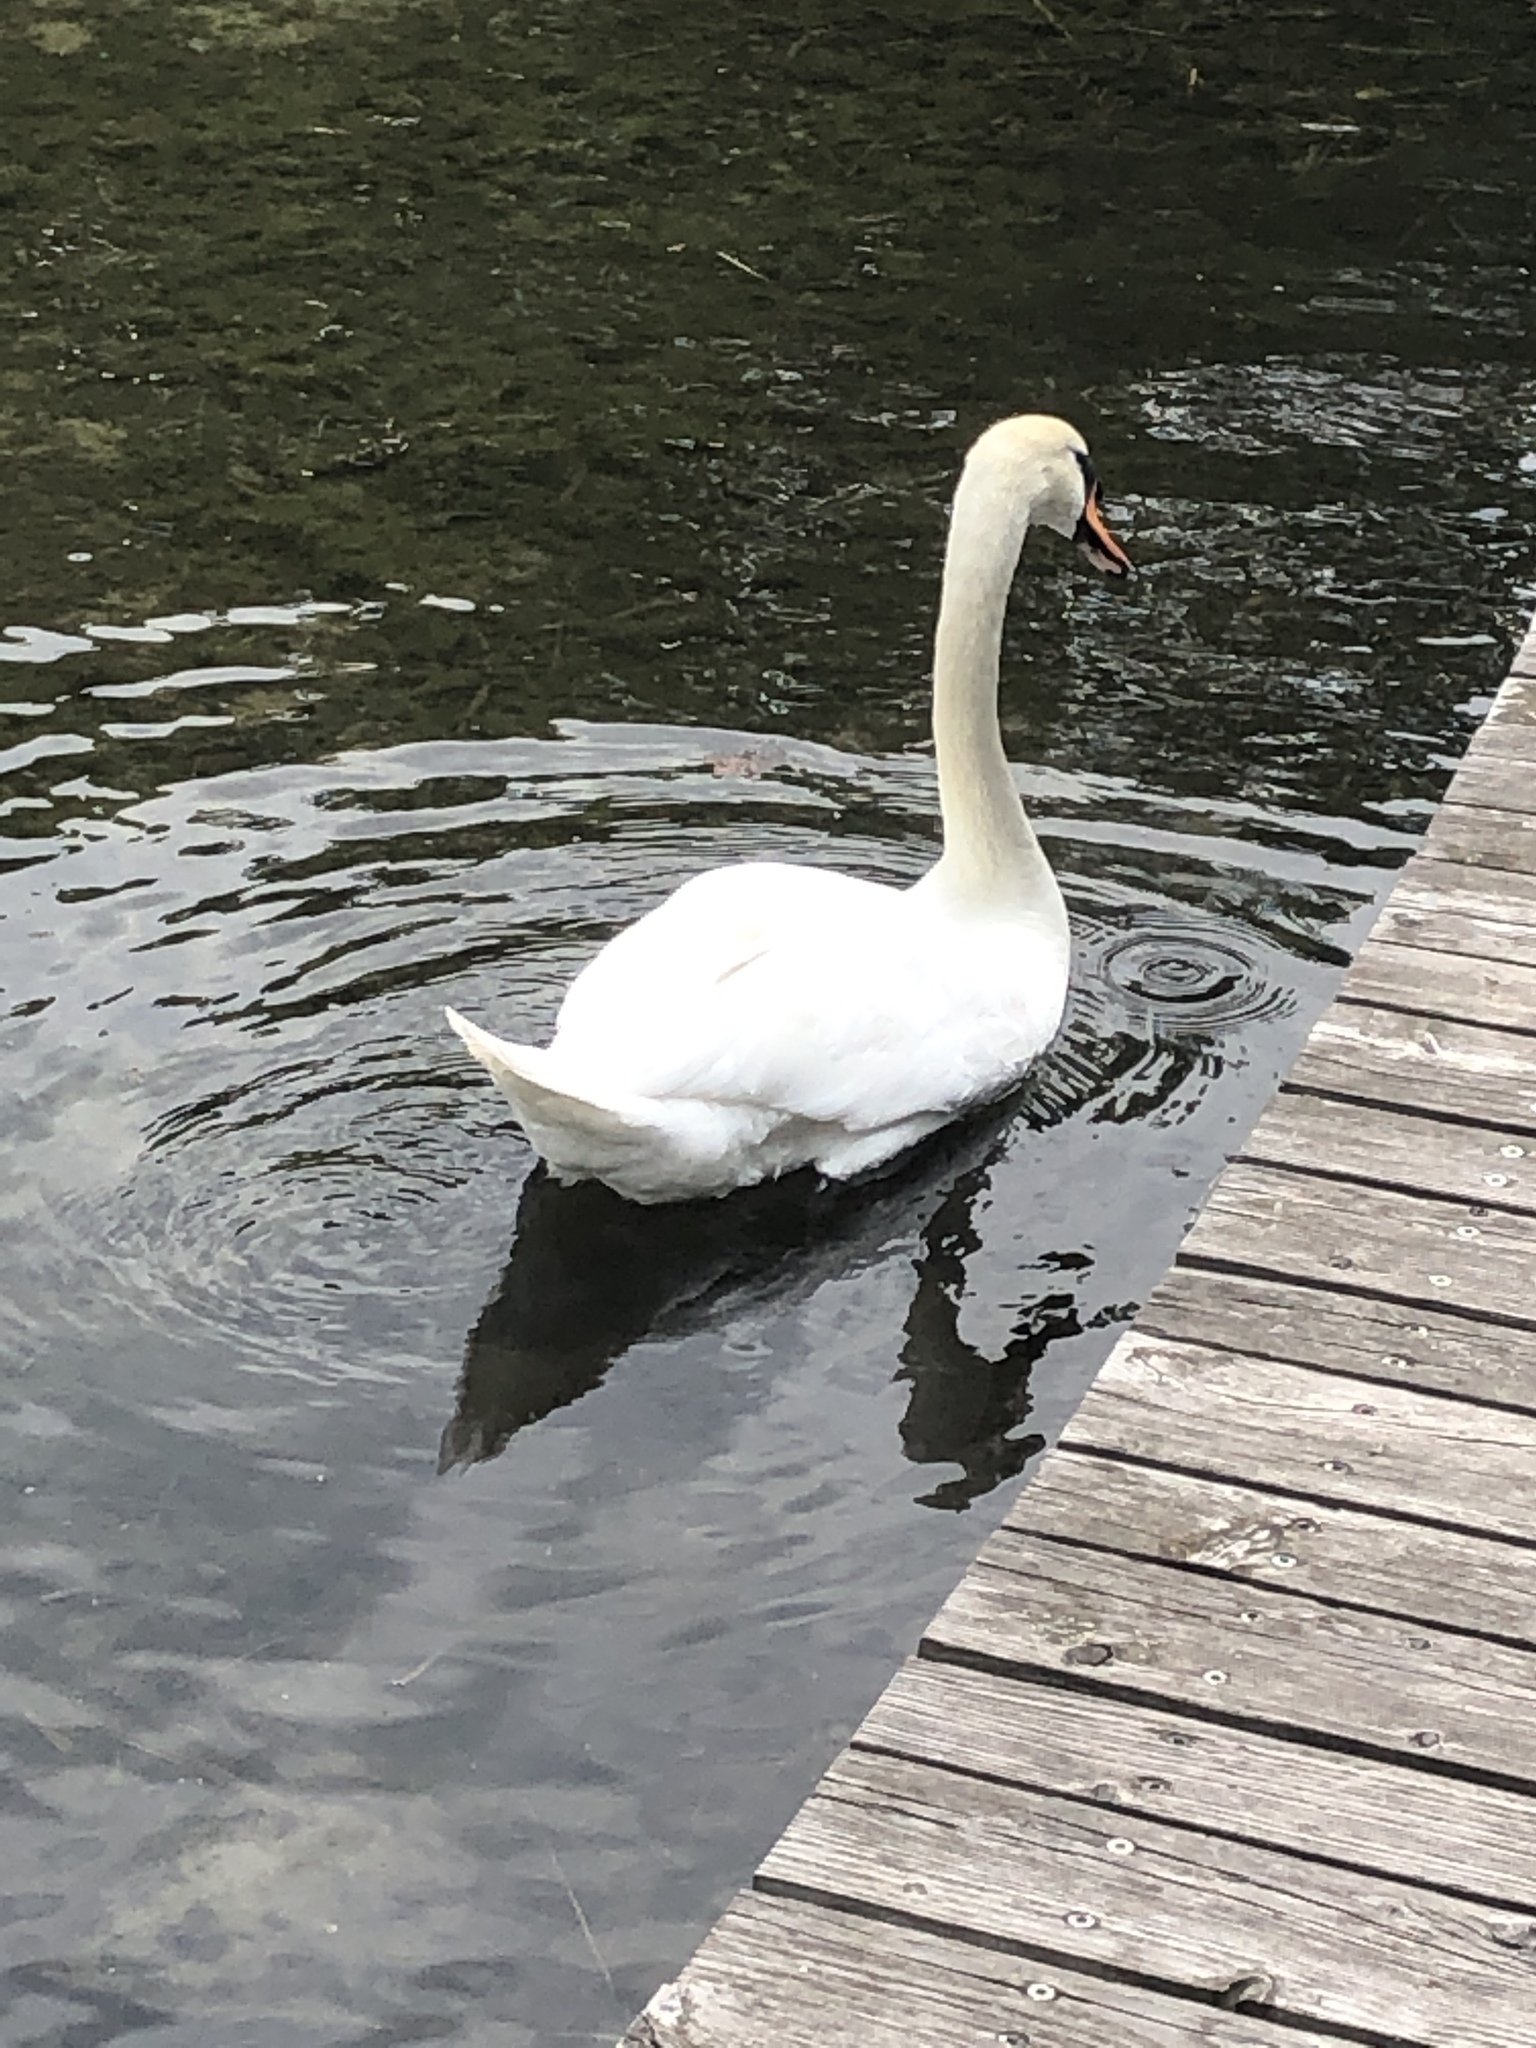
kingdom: Animalia
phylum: Chordata
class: Aves
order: Anseriformes
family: Anatidae
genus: Cygnus
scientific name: Cygnus olor
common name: Mute swan
